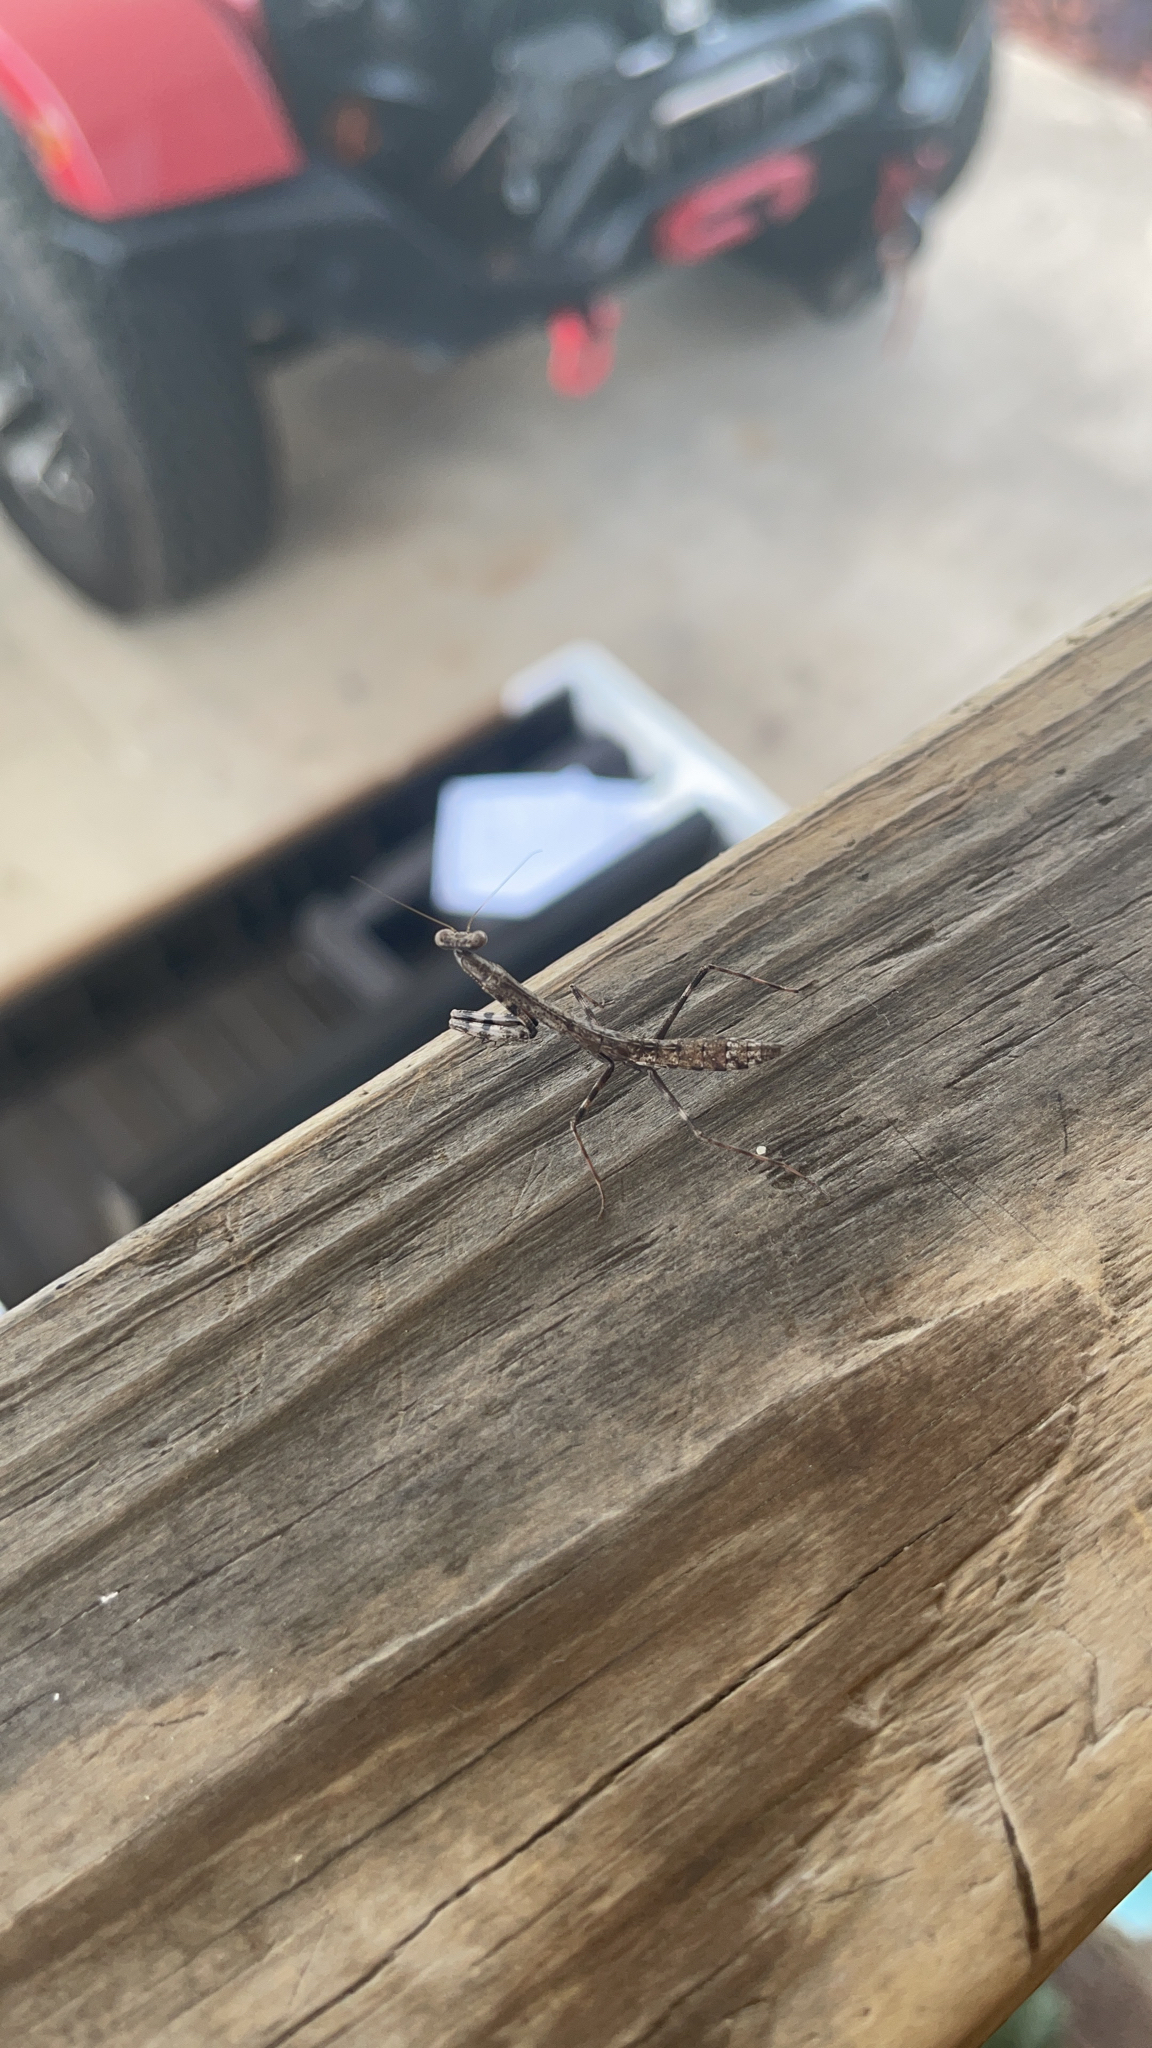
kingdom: Animalia
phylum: Arthropoda
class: Insecta
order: Mantodea
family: Mantidae
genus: Stagmomantis
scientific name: Stagmomantis carolina
